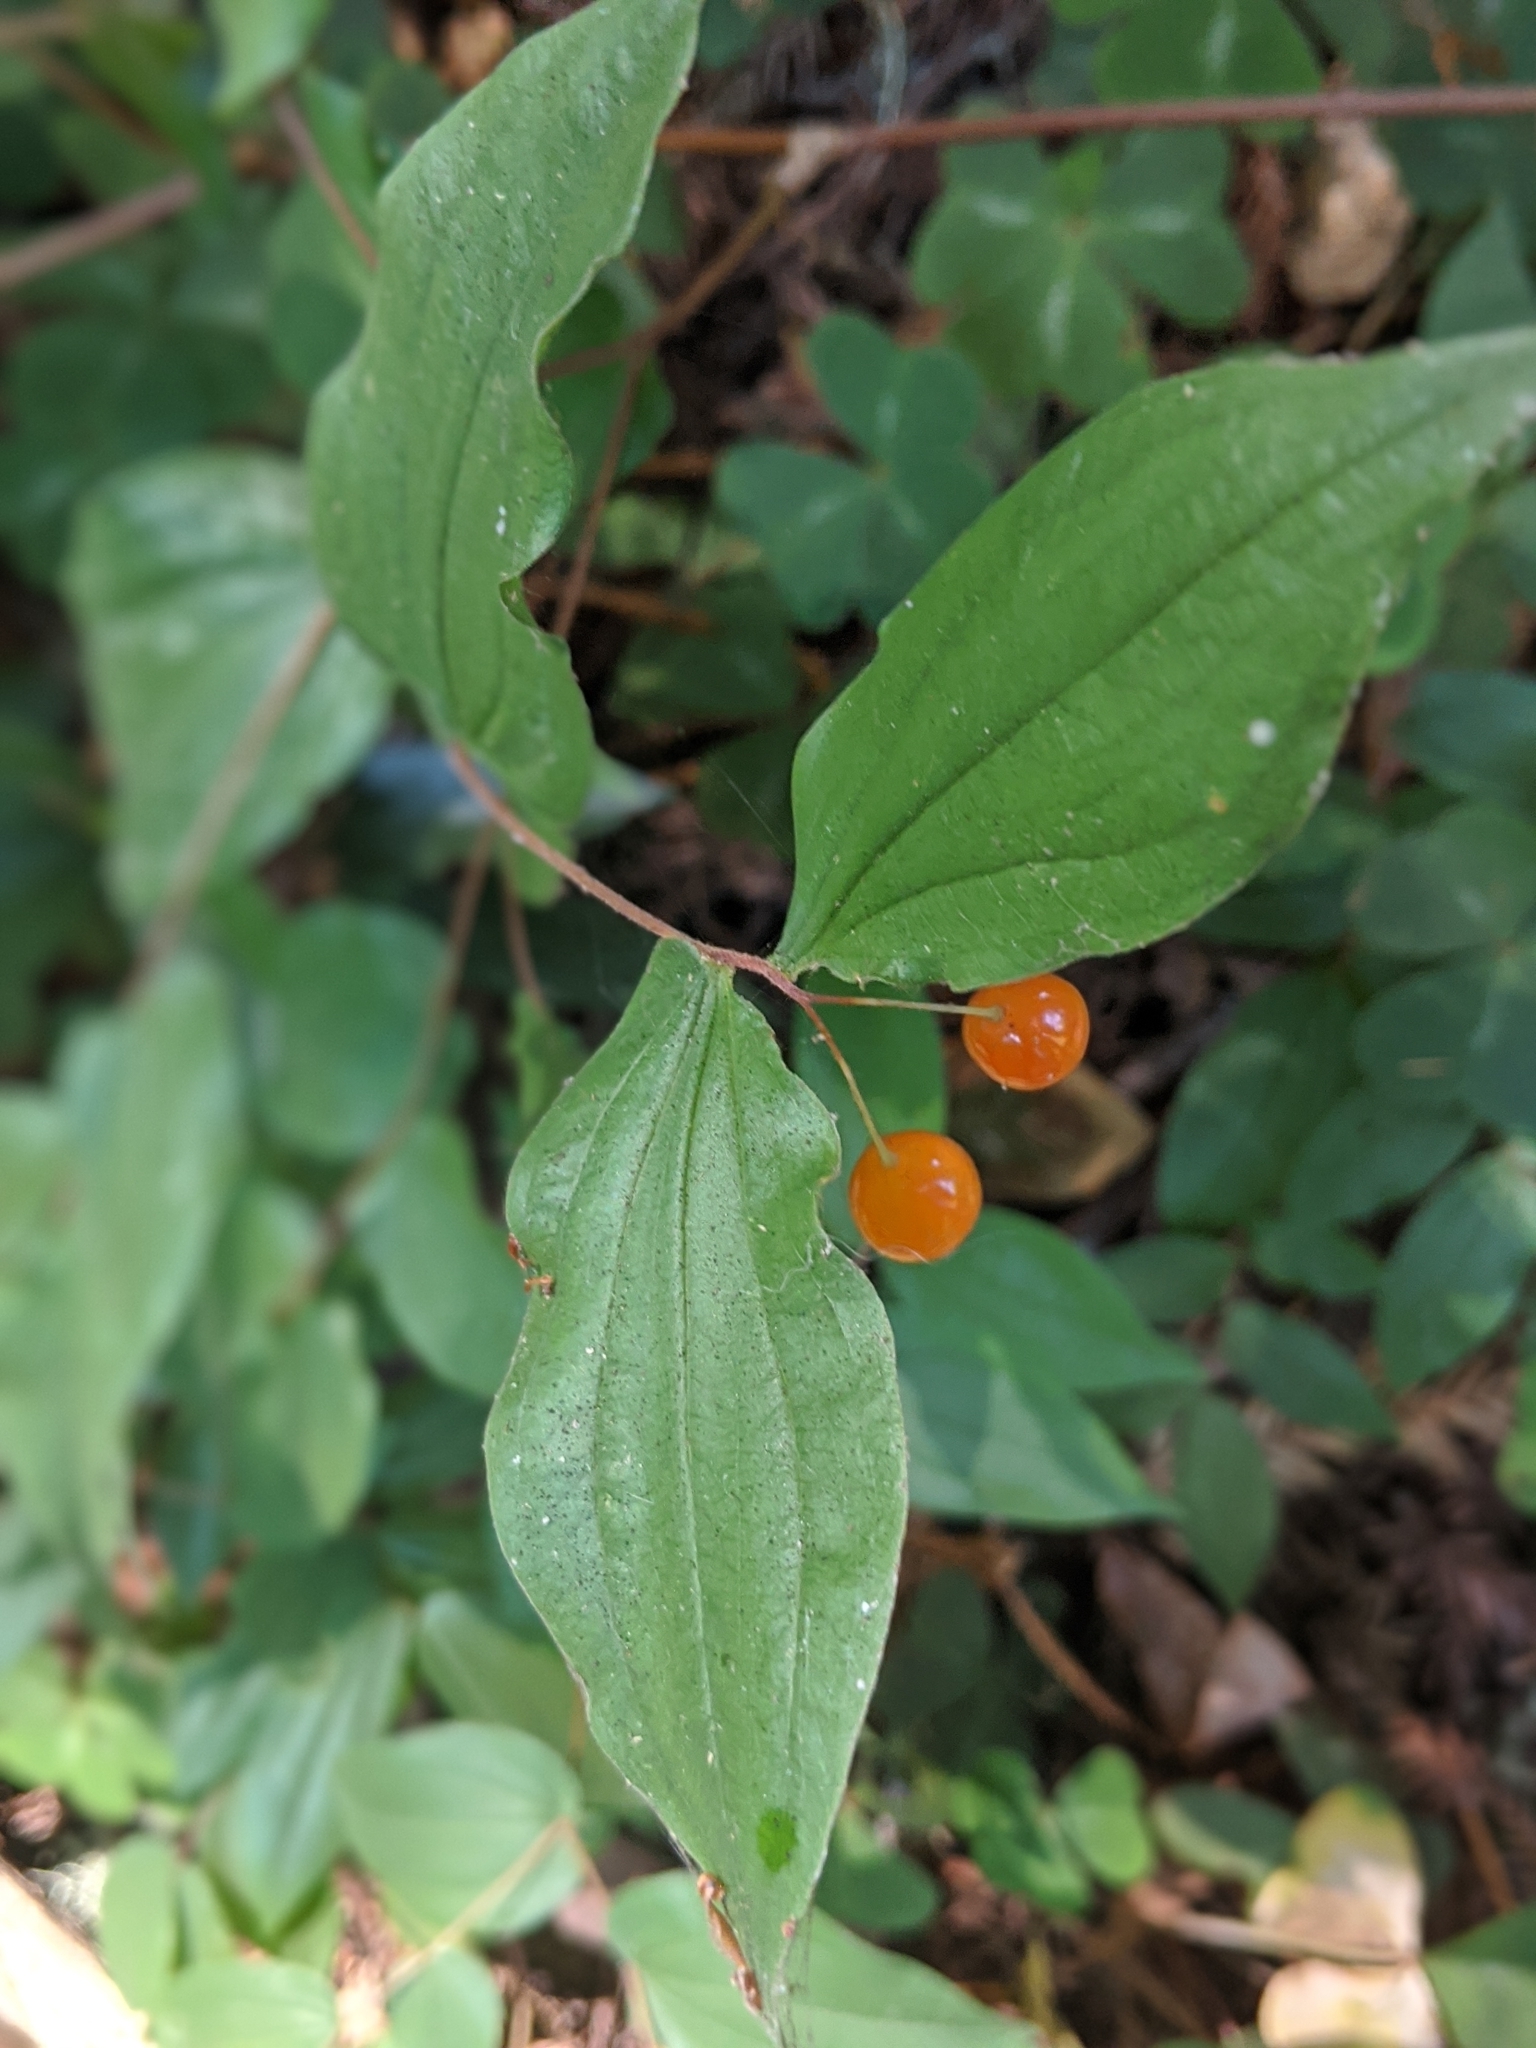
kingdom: Plantae
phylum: Tracheophyta
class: Liliopsida
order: Liliales
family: Liliaceae
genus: Prosartes
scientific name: Prosartes hookeri
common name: Fairy-bells
